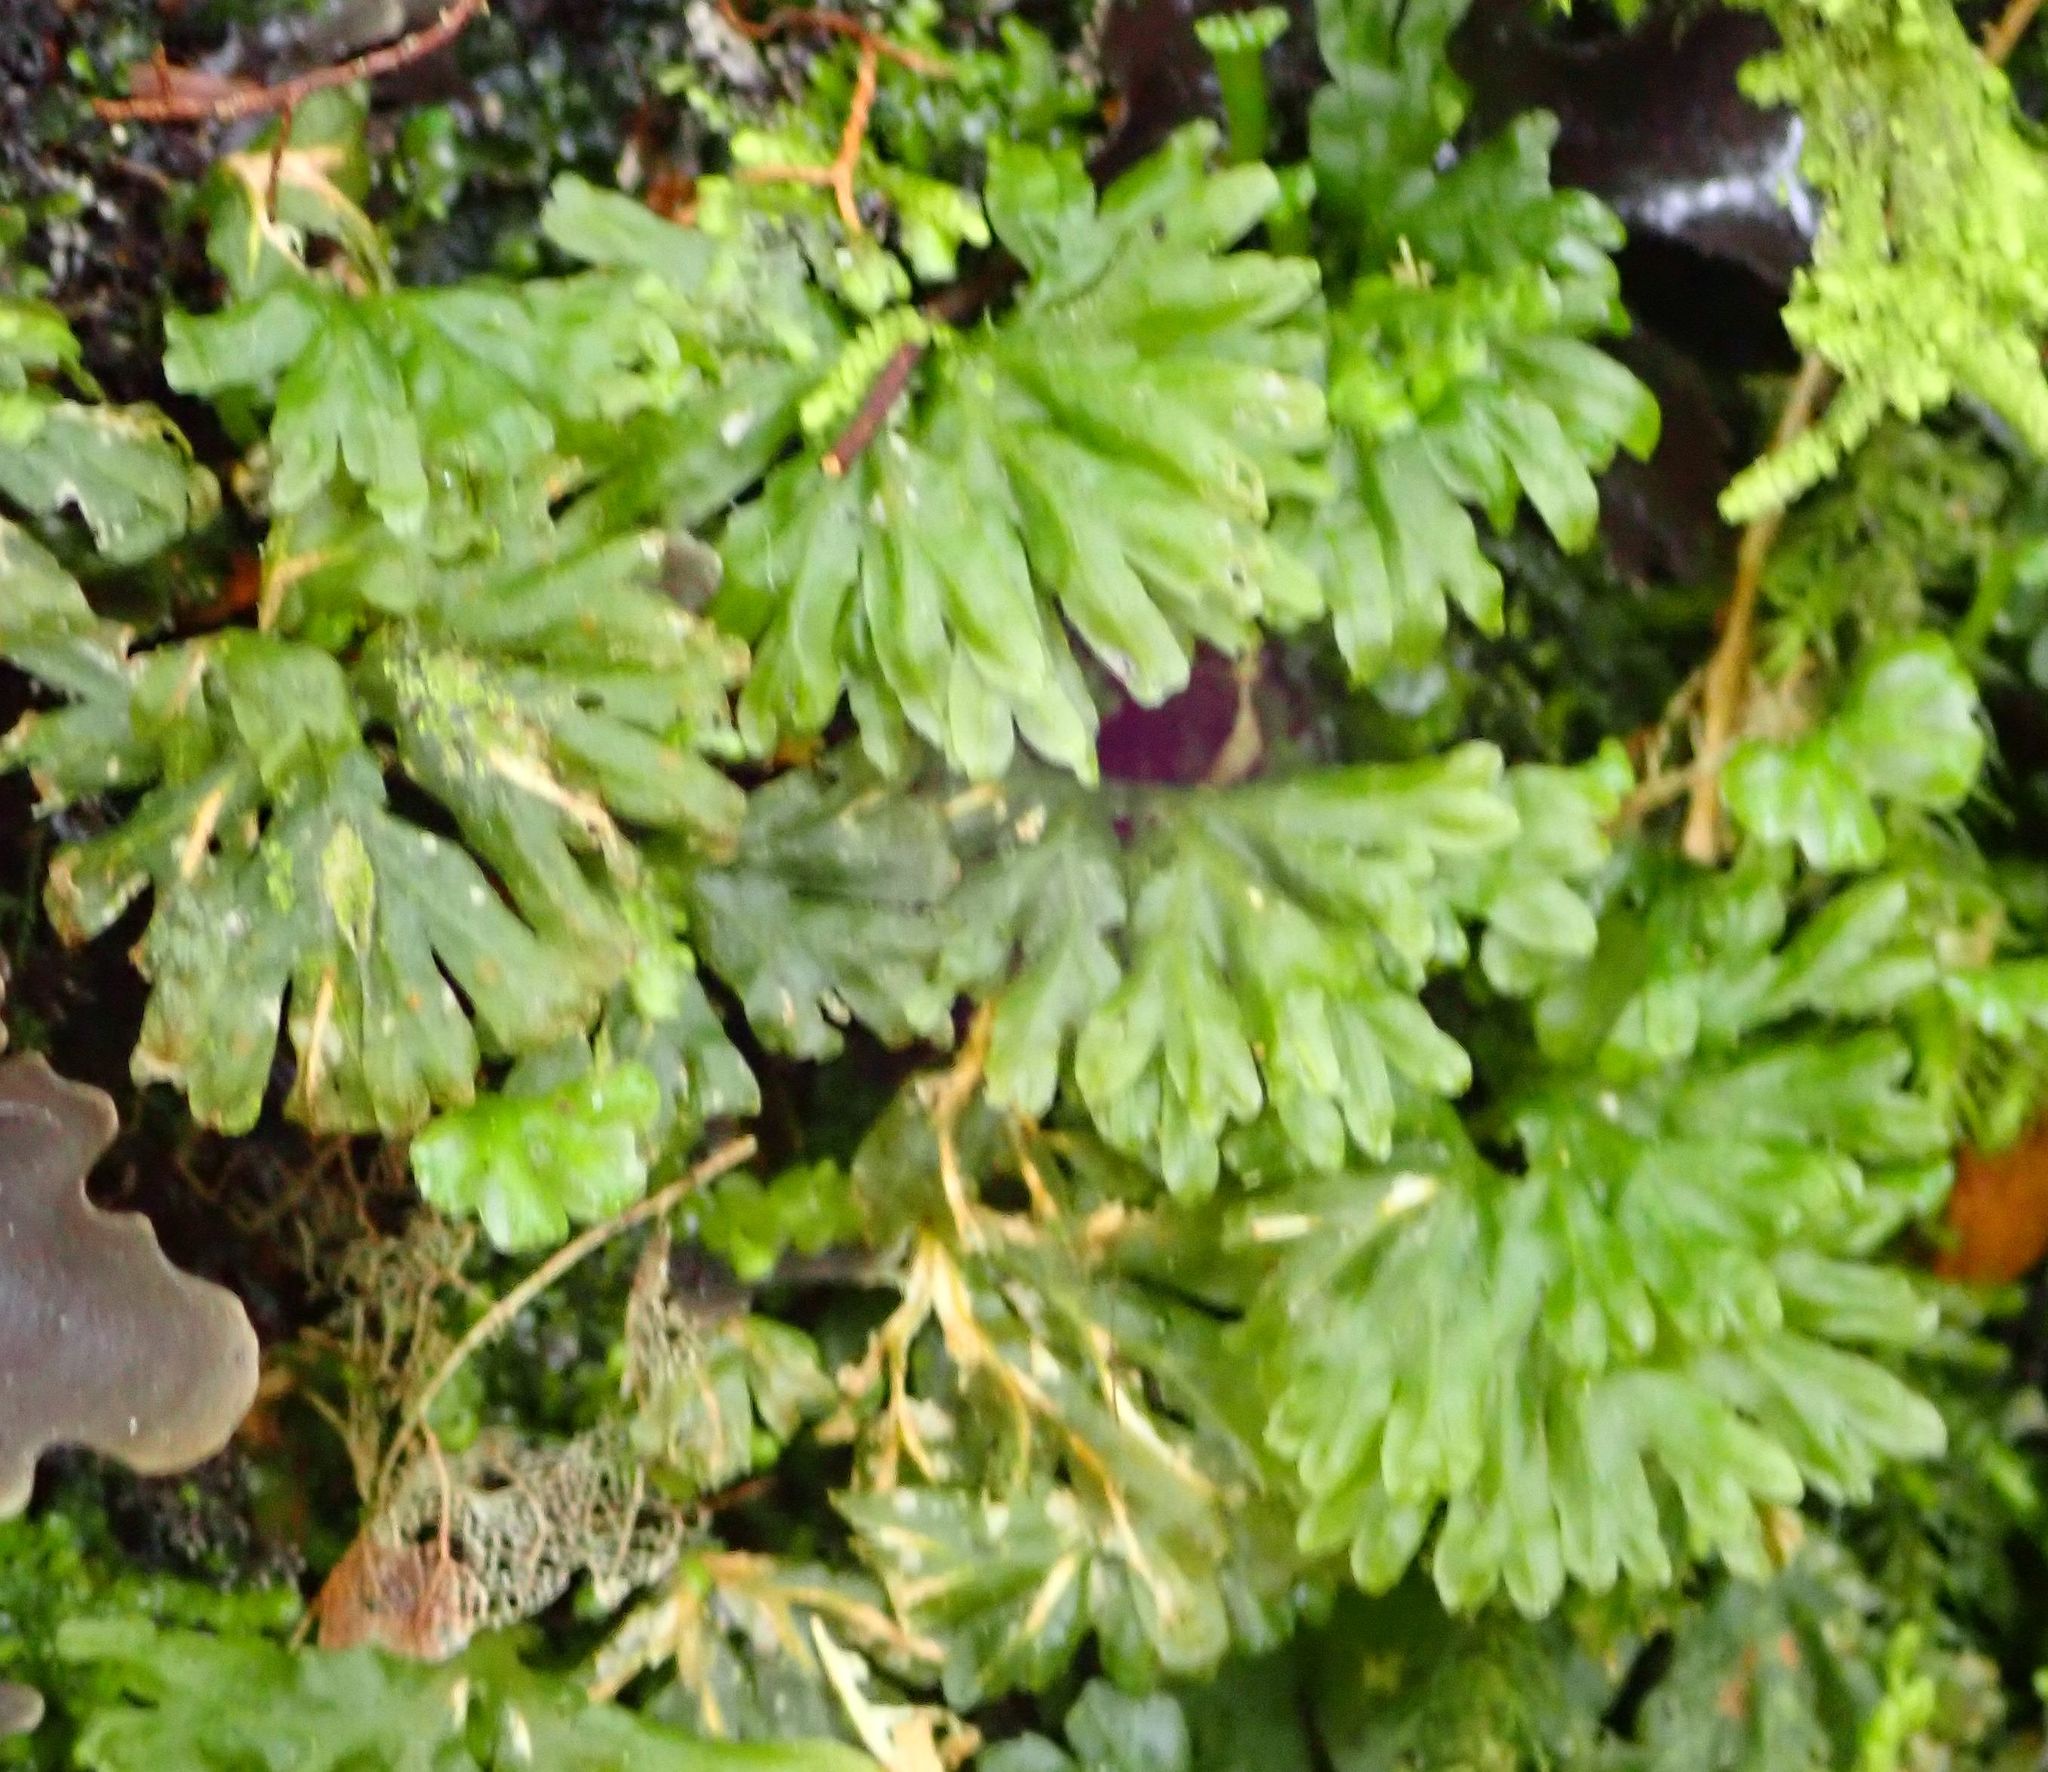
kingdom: Plantae
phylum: Marchantiophyta
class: Jungermanniopsida
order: Pallaviciniales
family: Hymenophytaceae
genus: Hymenophyton
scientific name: Hymenophyton flabellatum
